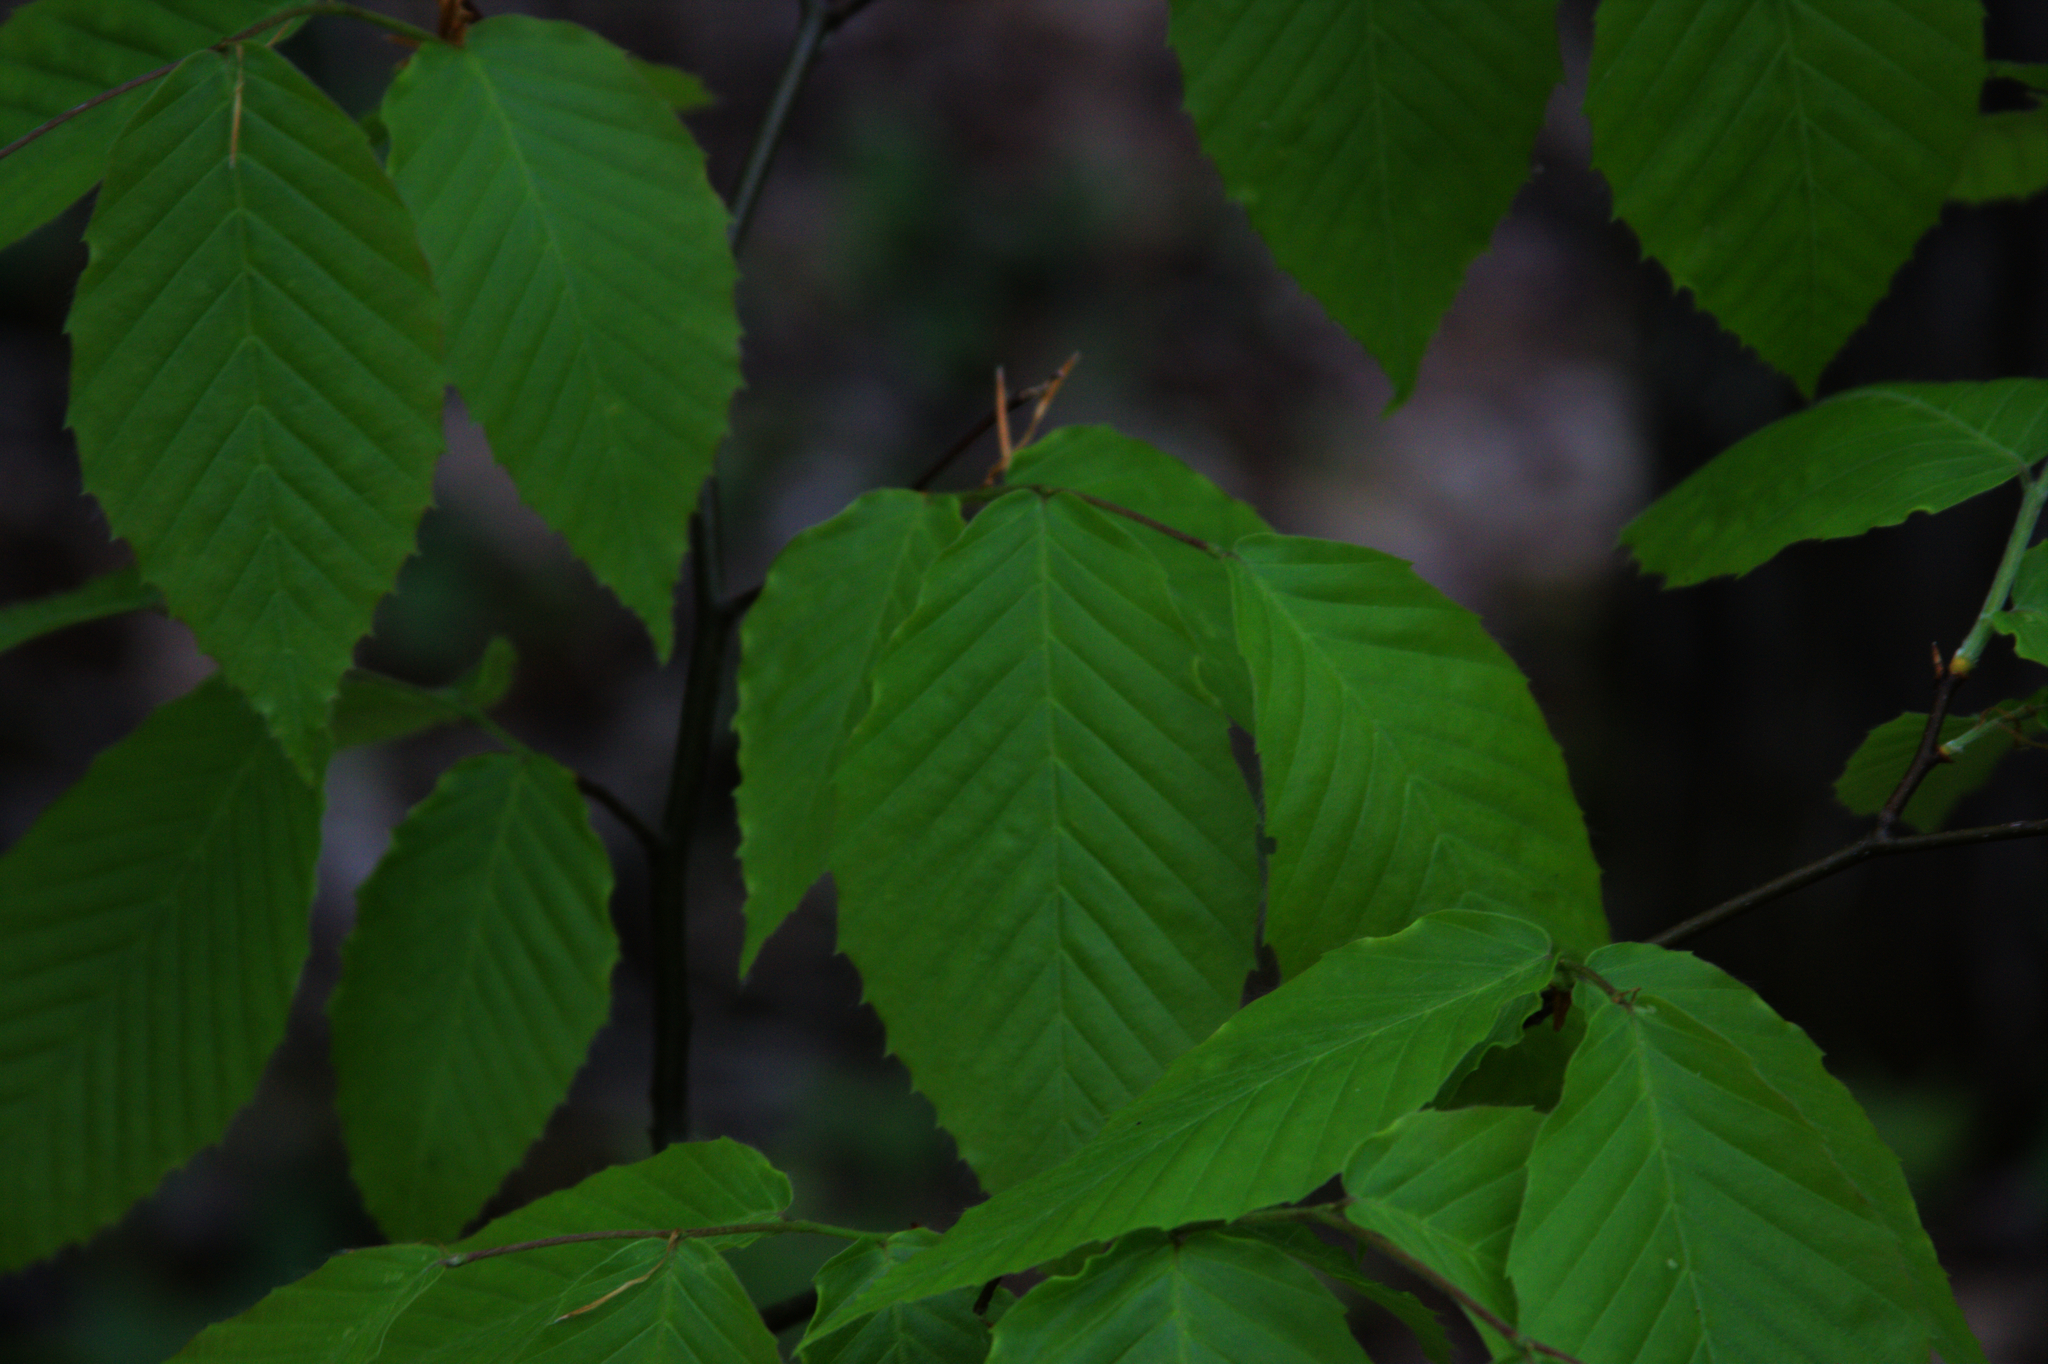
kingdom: Plantae
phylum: Tracheophyta
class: Magnoliopsida
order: Fagales
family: Fagaceae
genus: Fagus
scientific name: Fagus grandifolia
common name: American beech
